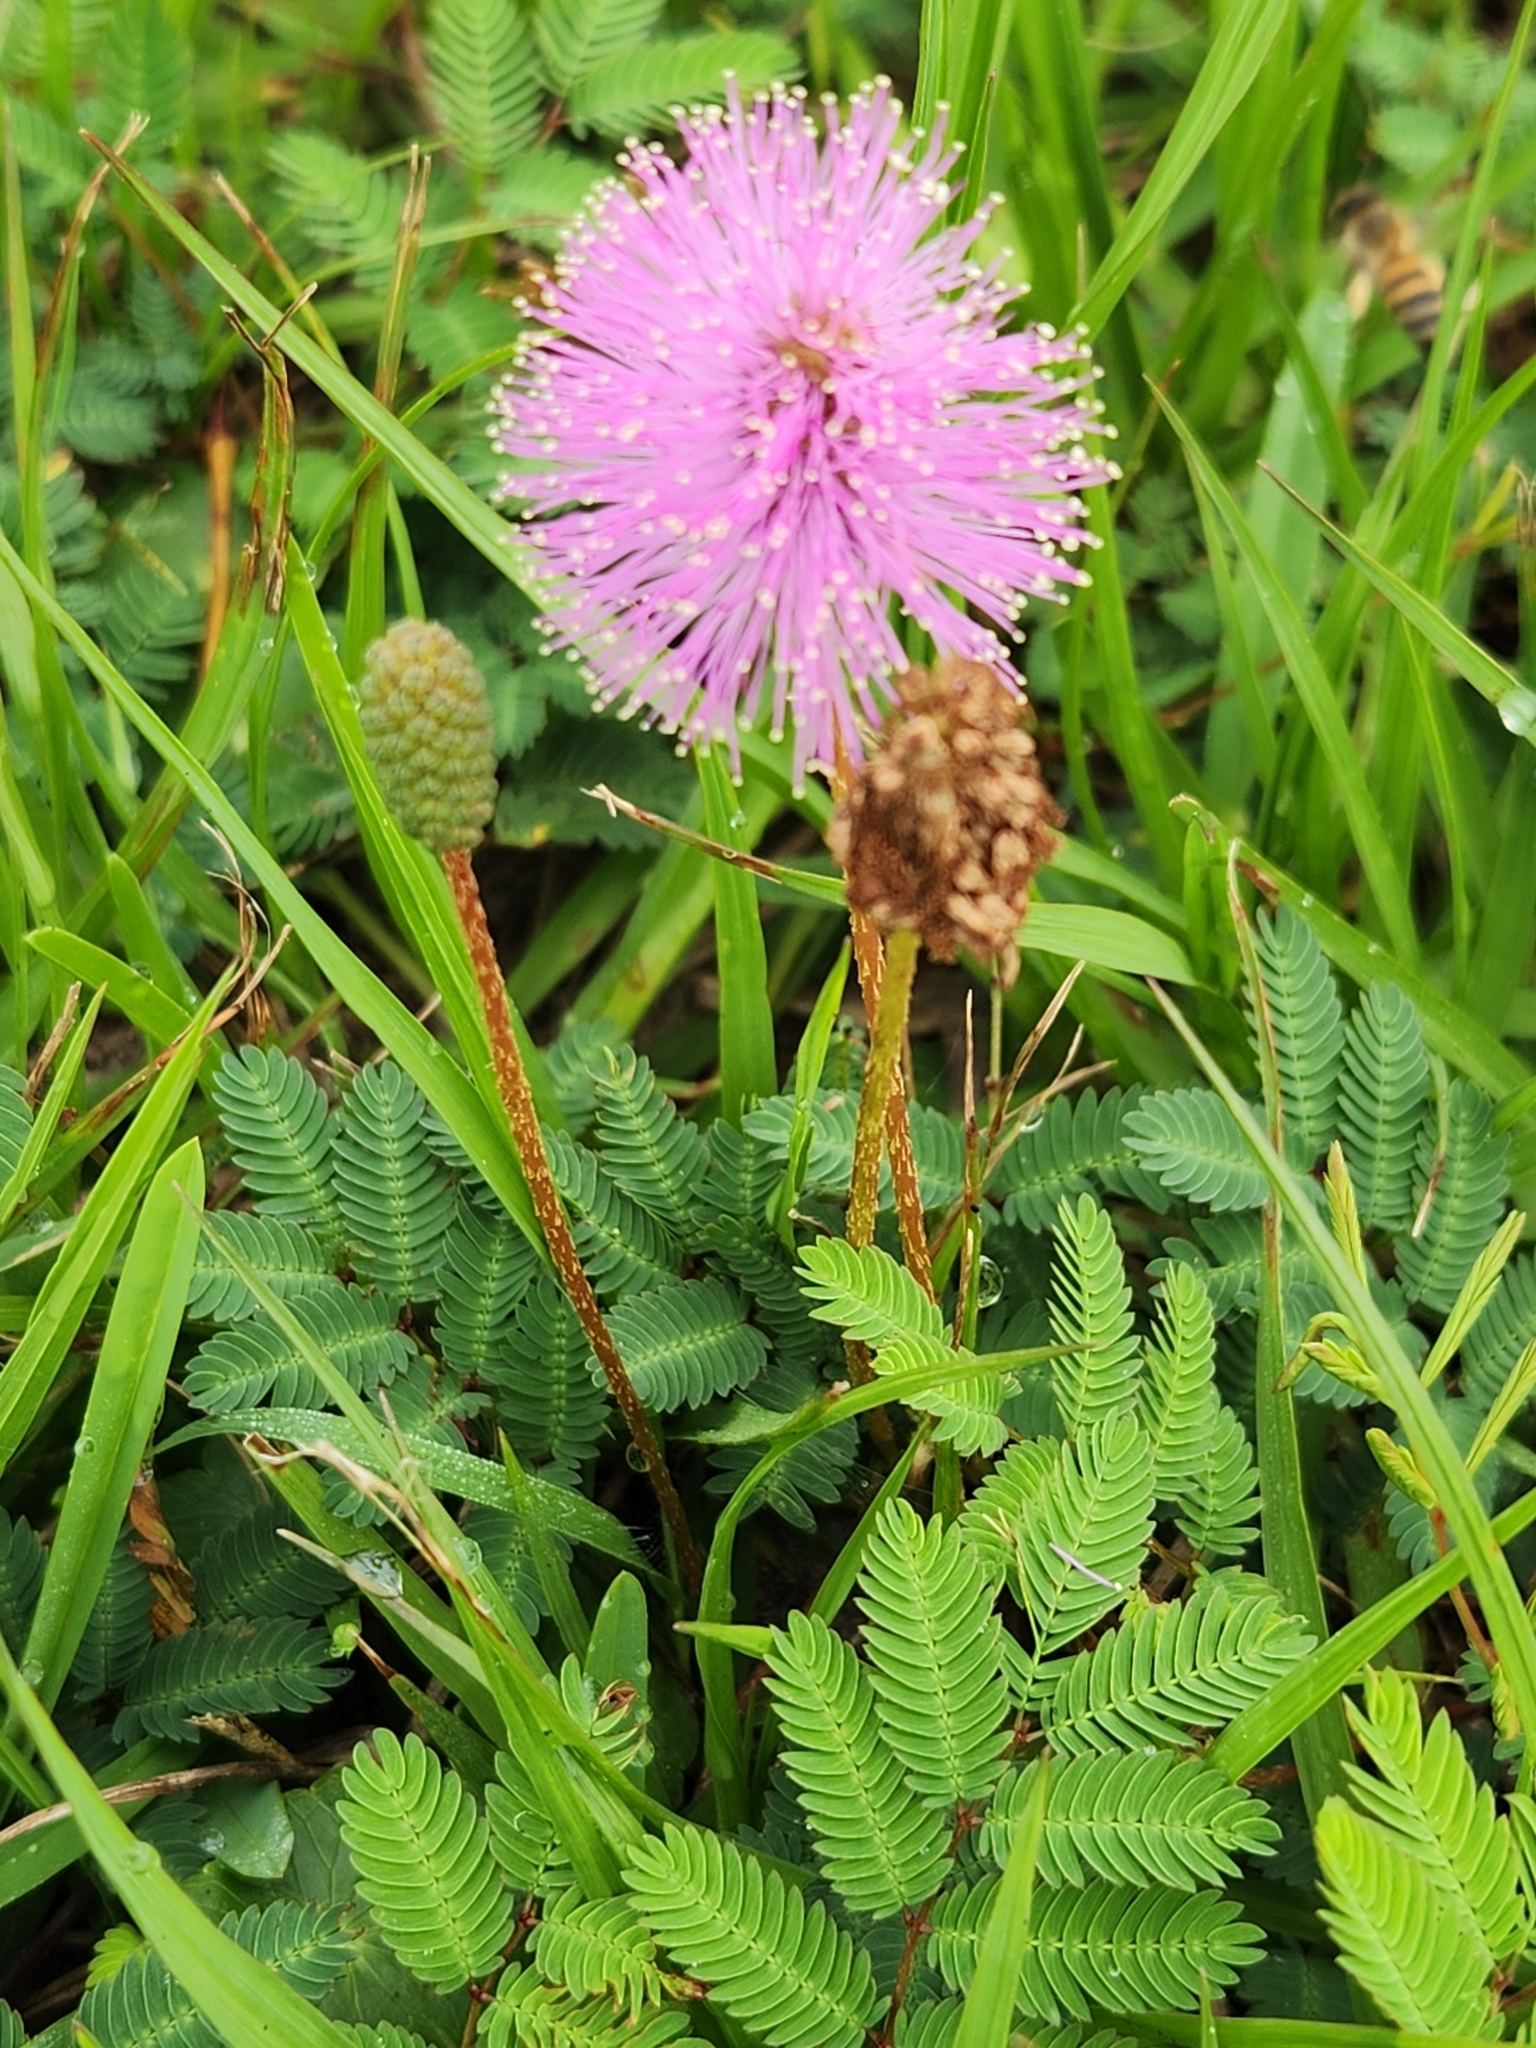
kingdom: Plantae
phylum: Tracheophyta
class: Magnoliopsida
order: Fabales
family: Fabaceae
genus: Mimosa
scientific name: Mimosa strigillosa
